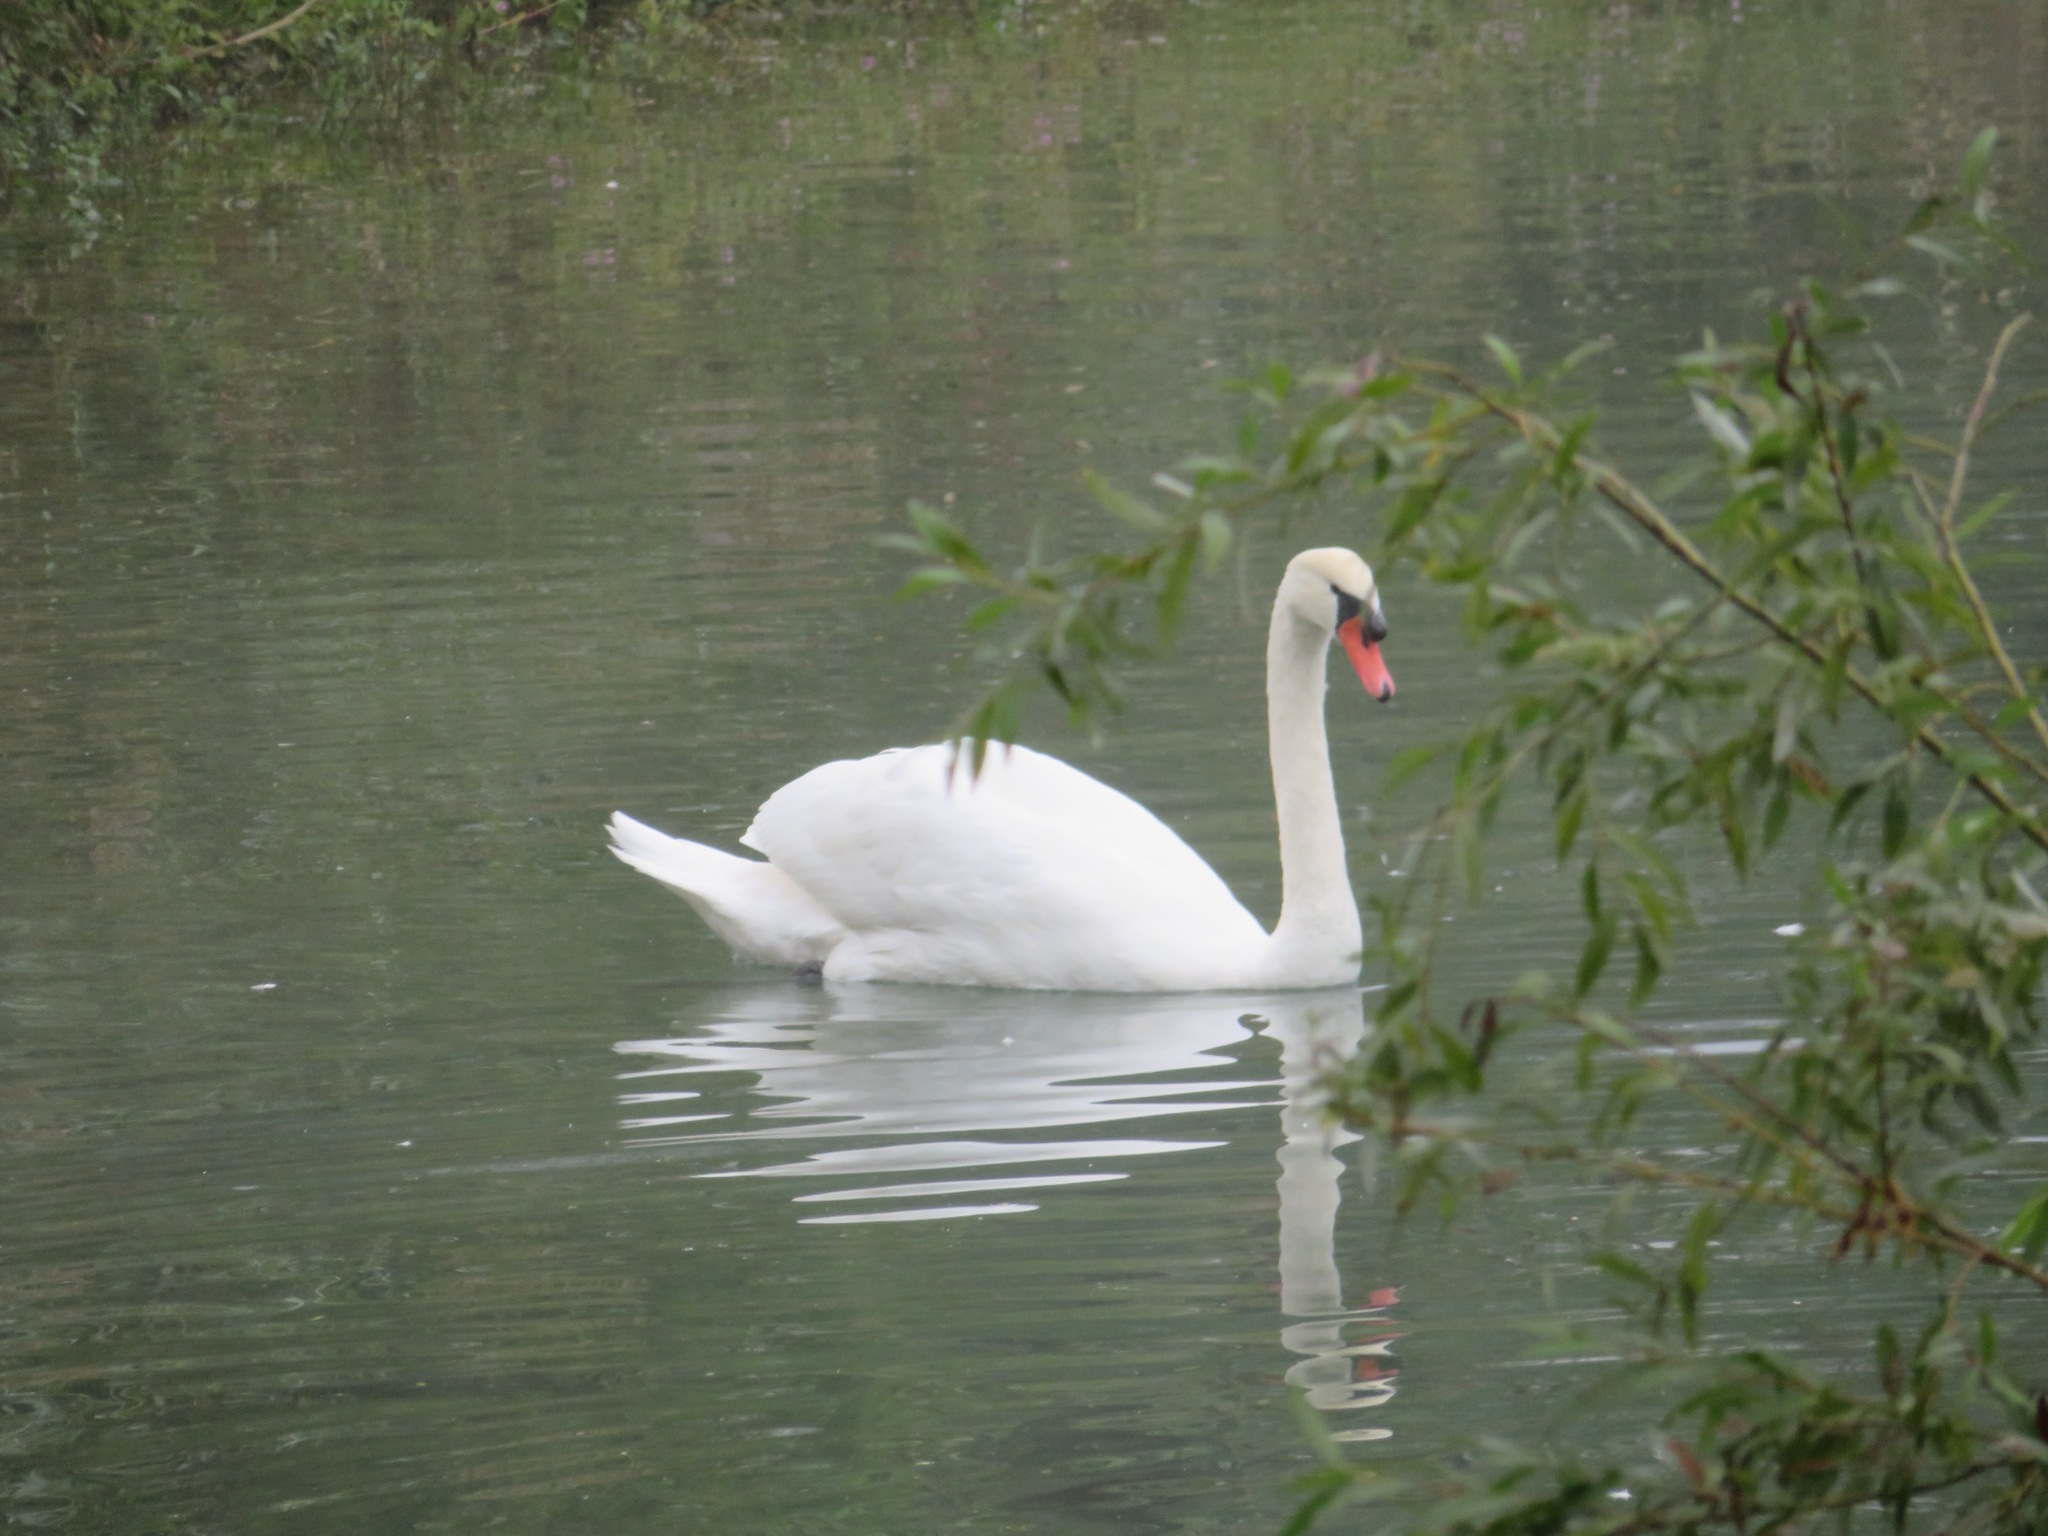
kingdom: Animalia
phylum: Chordata
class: Aves
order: Anseriformes
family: Anatidae
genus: Cygnus
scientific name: Cygnus olor
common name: Mute swan
